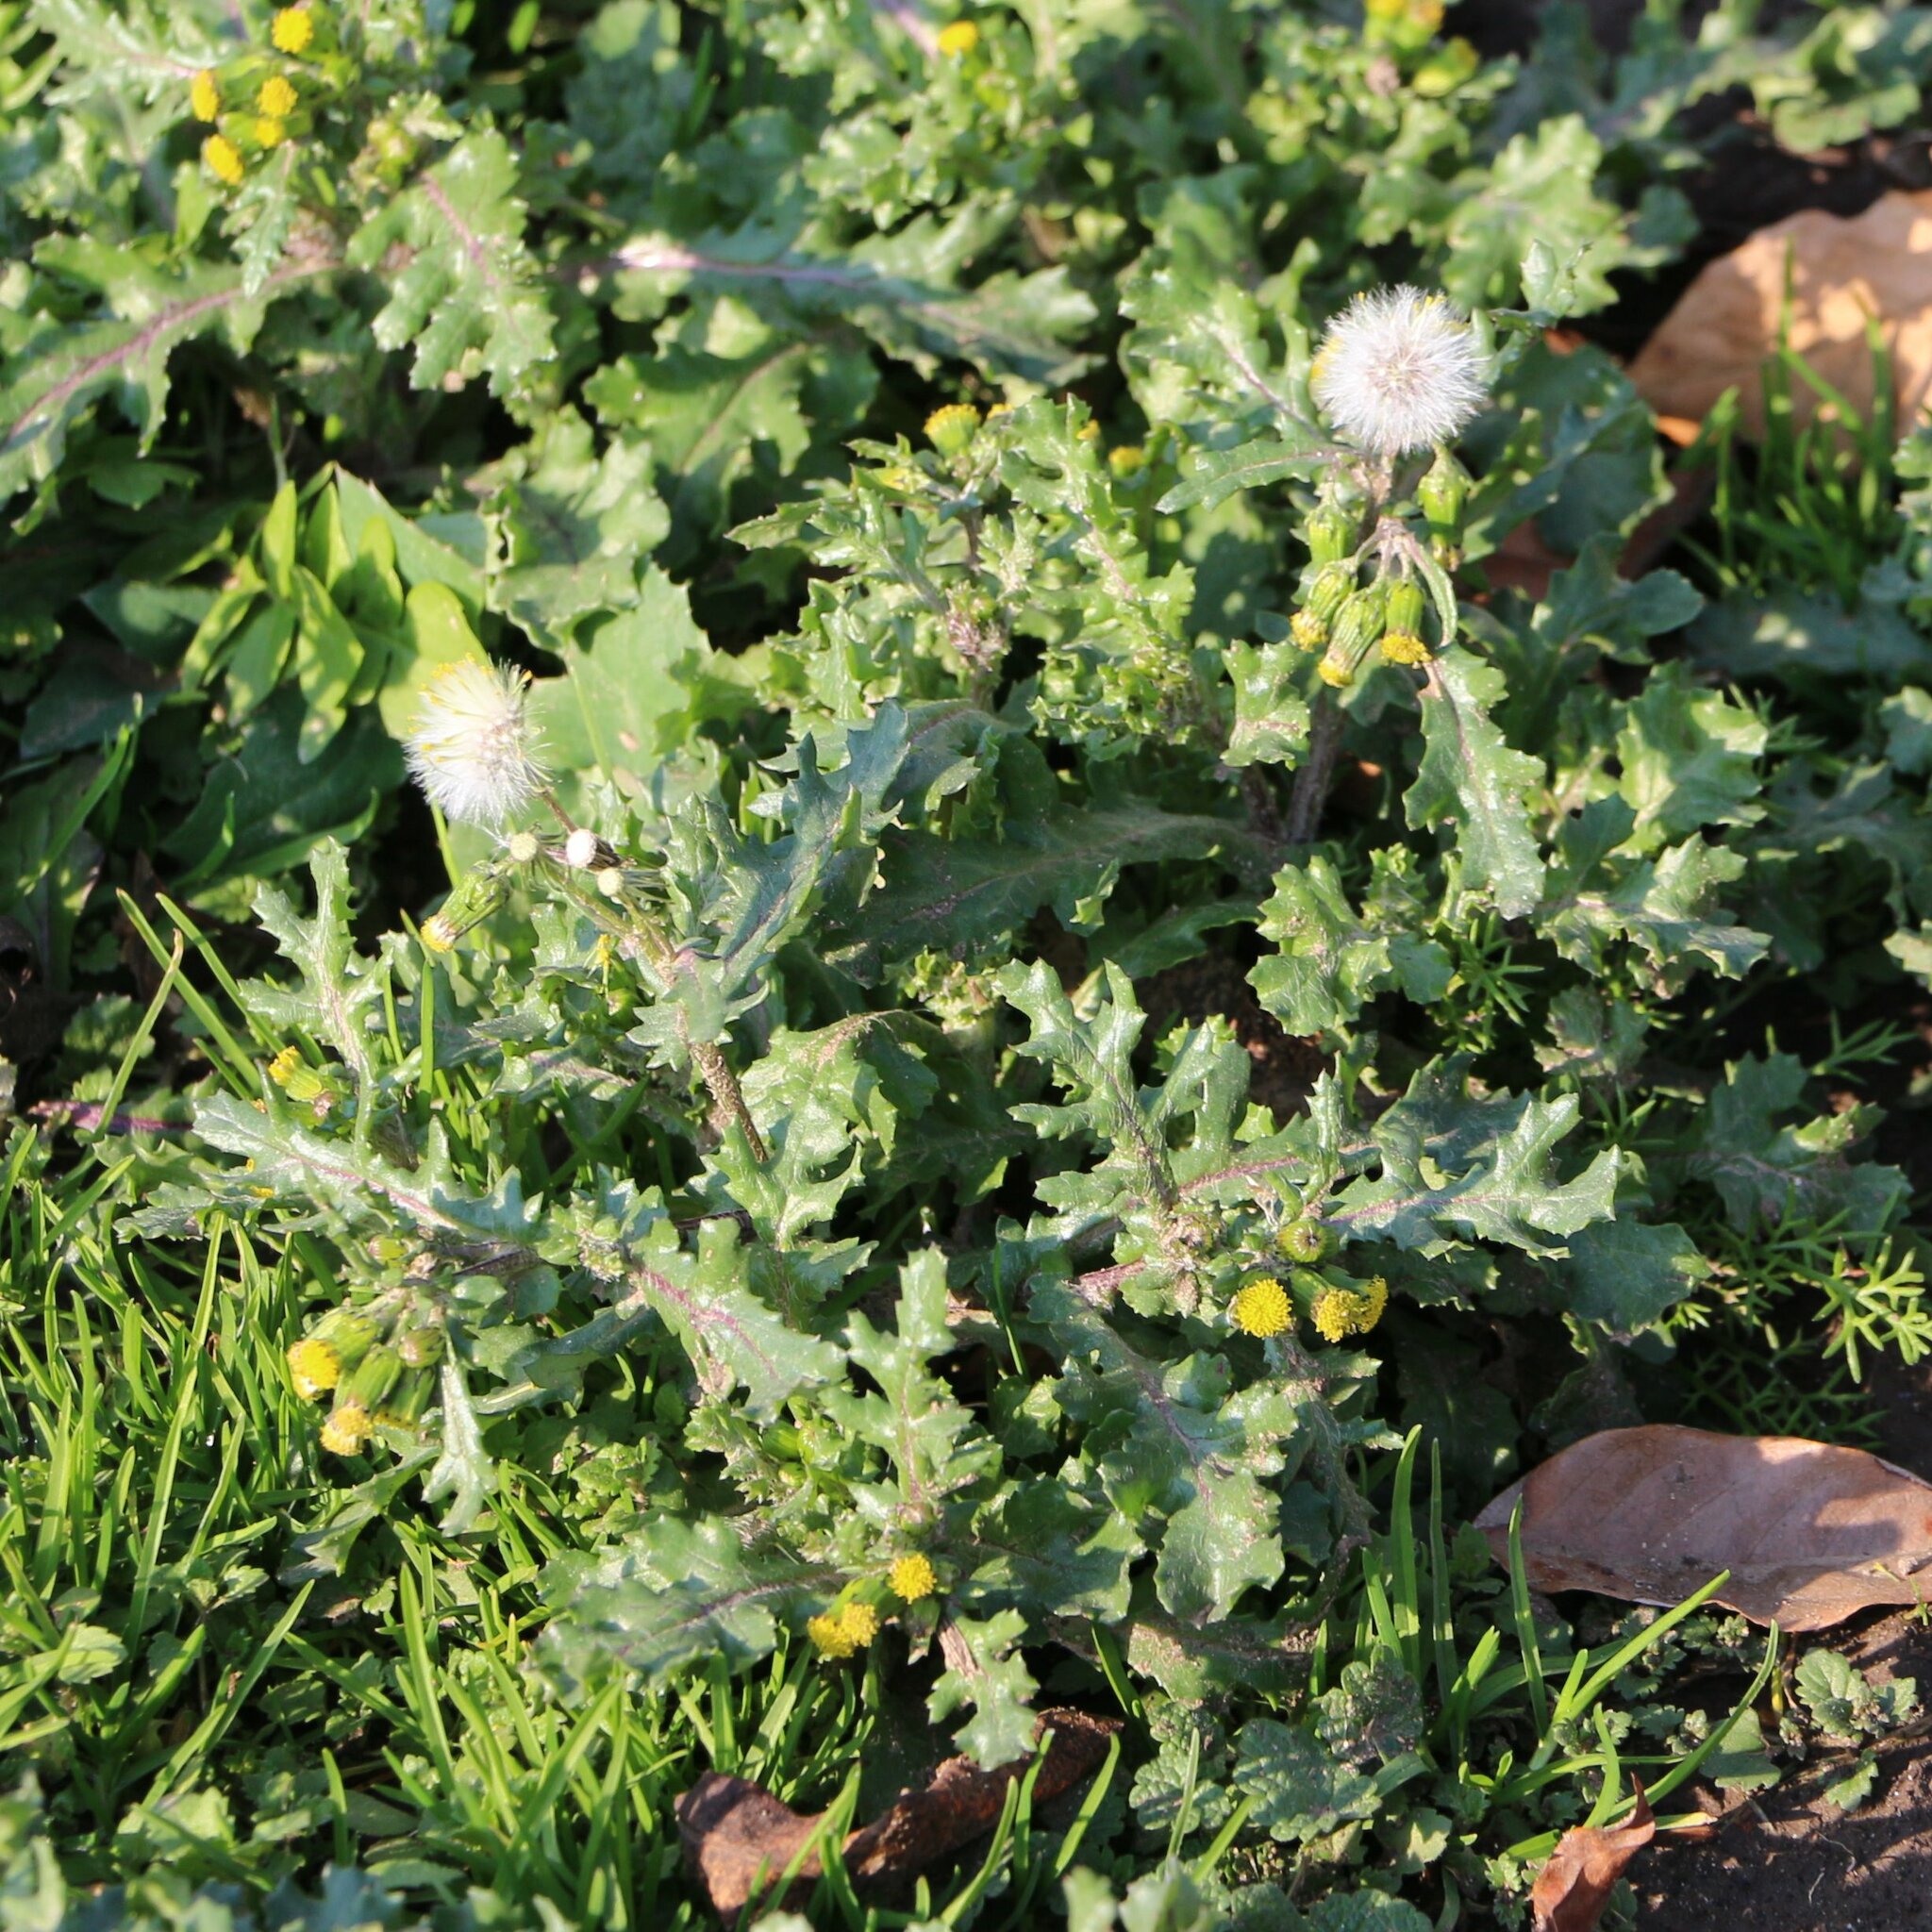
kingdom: Plantae
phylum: Tracheophyta
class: Magnoliopsida
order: Asterales
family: Asteraceae
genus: Senecio
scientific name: Senecio vulgaris
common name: Old-man-in-the-spring
